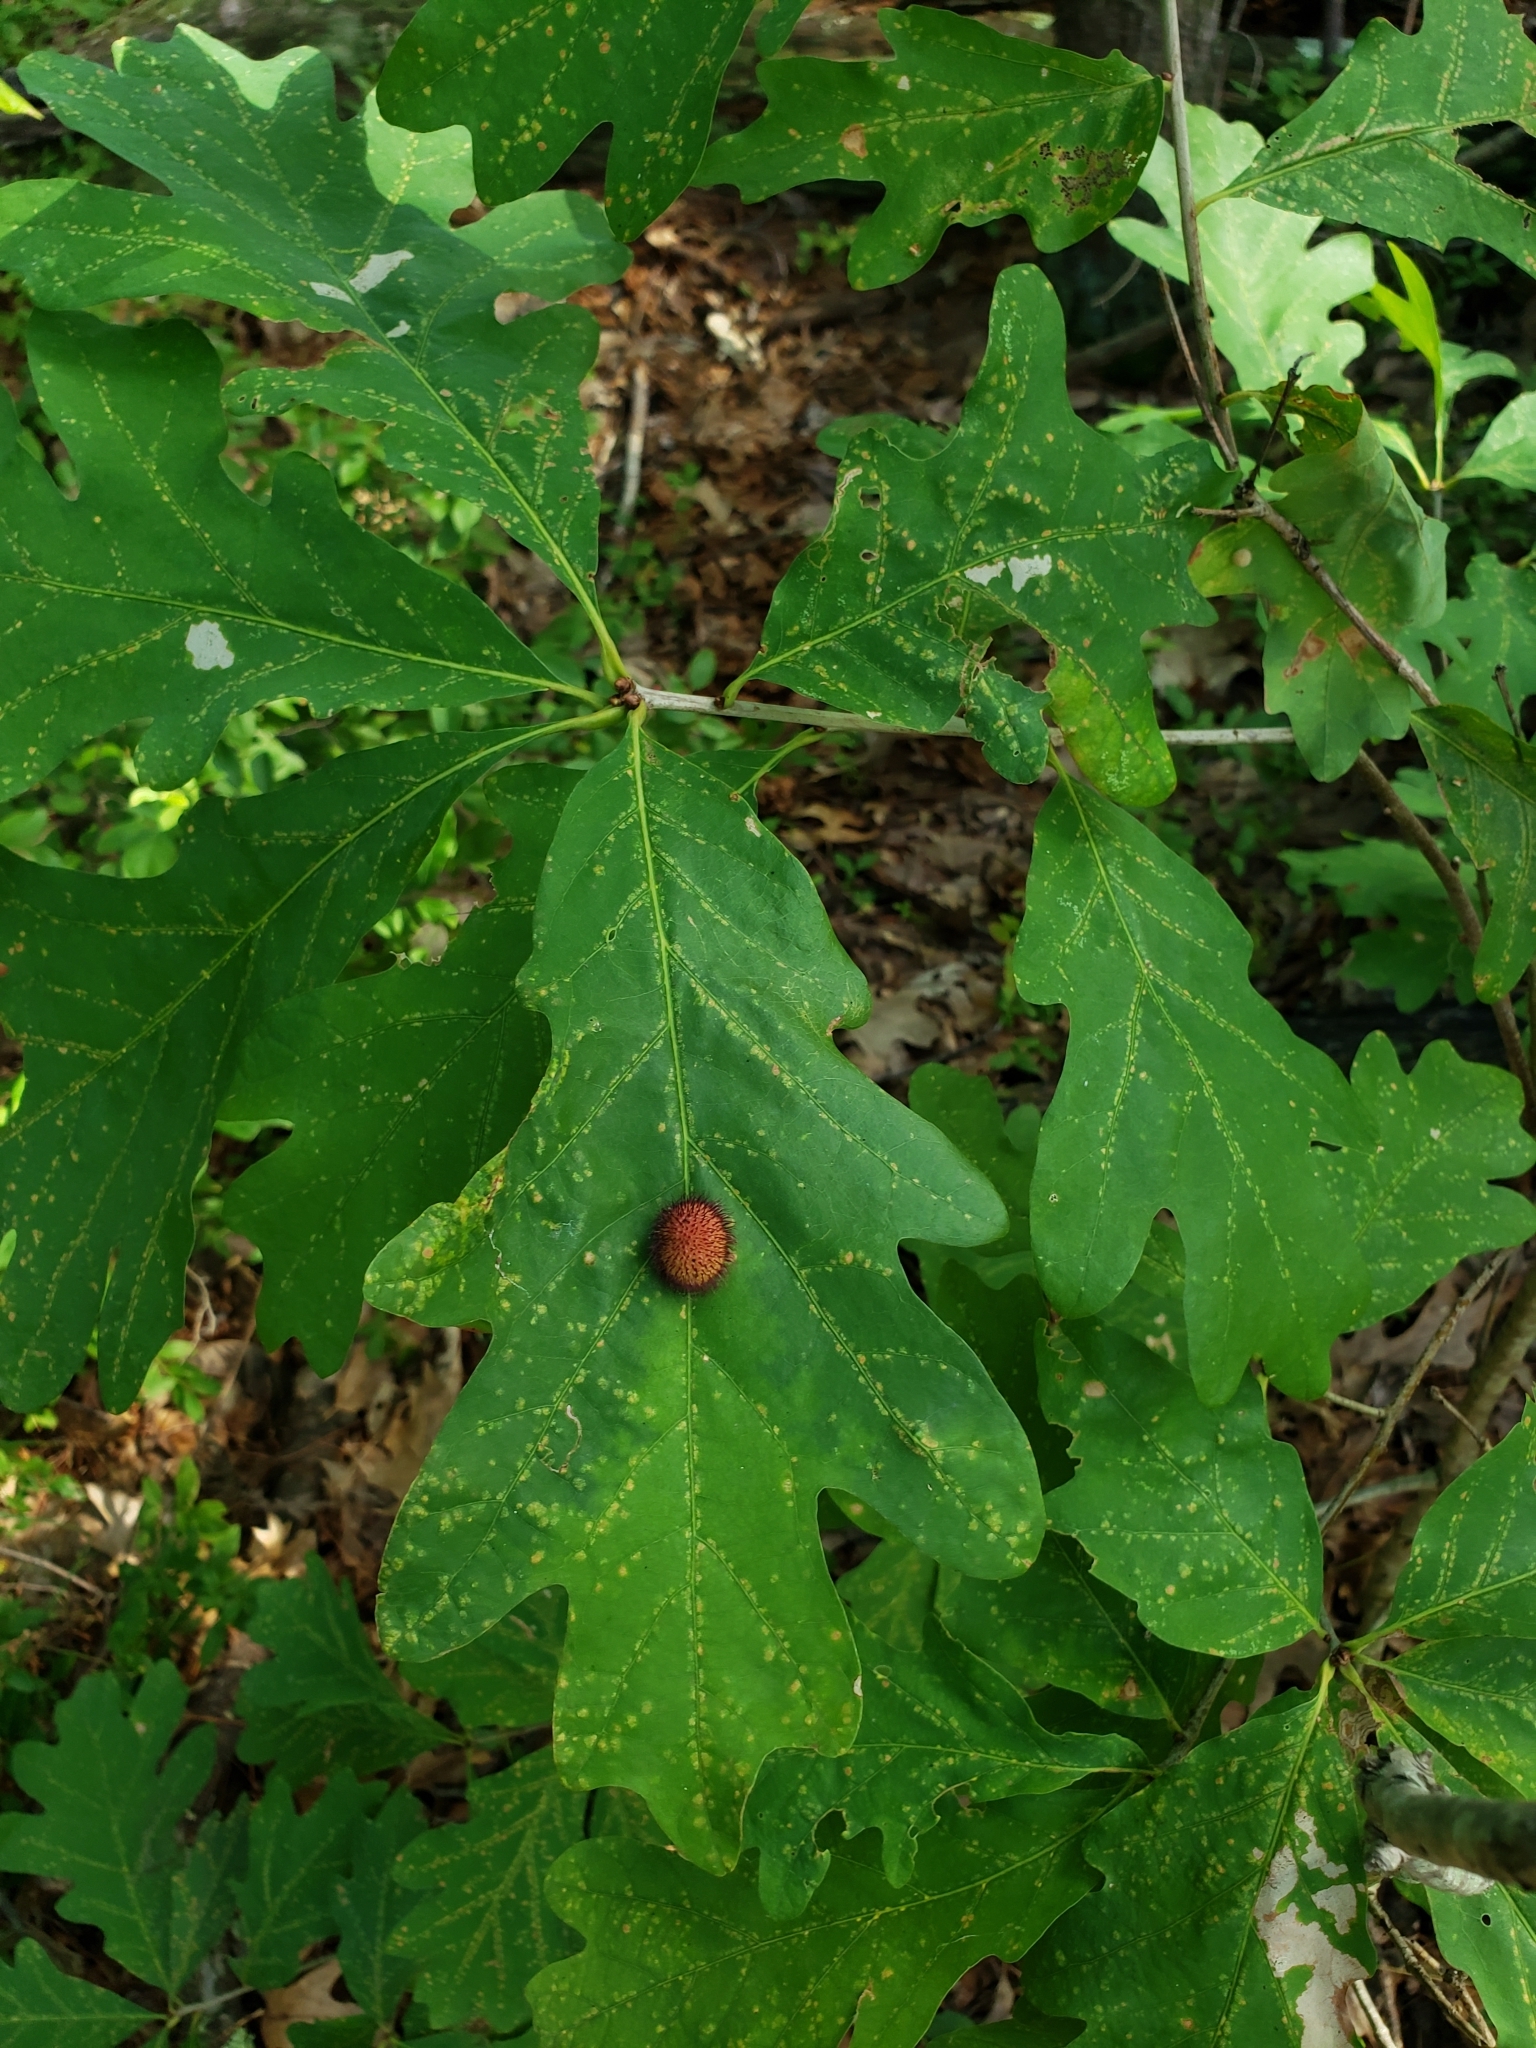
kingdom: Plantae
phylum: Tracheophyta
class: Magnoliopsida
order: Fagales
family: Fagaceae
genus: Quercus
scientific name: Quercus alba
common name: White oak
